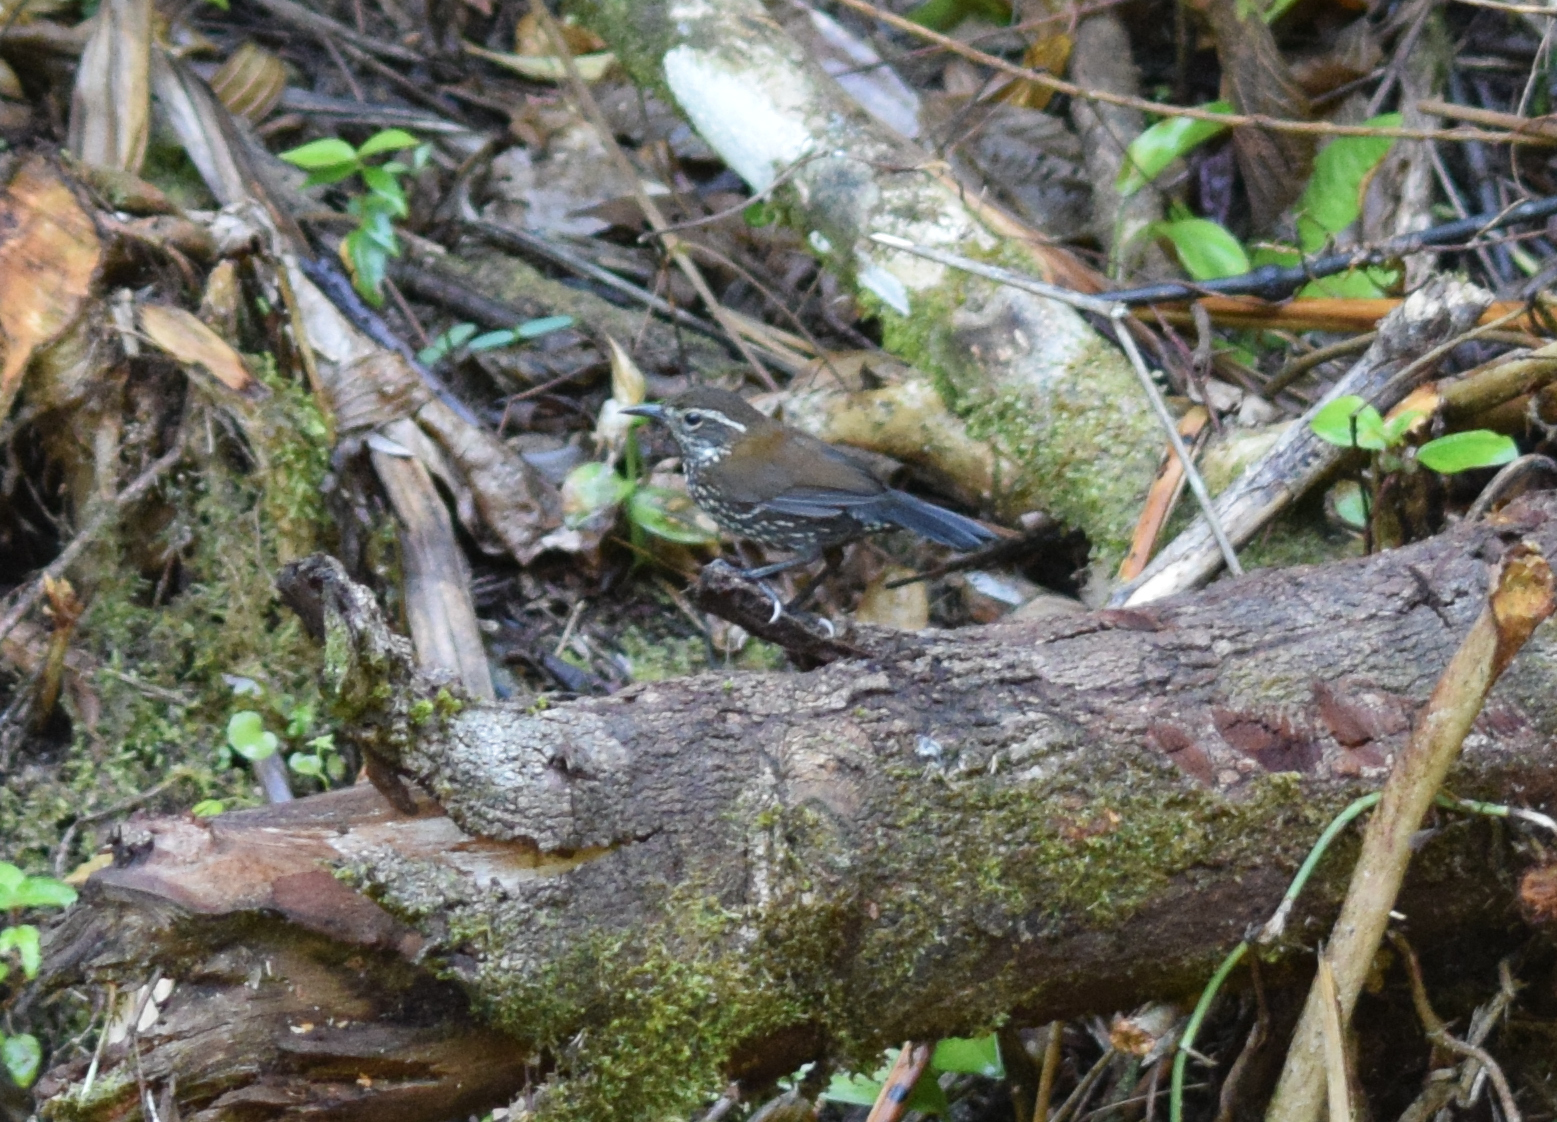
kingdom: Animalia
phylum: Chordata
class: Aves
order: Passeriformes
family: Furnariidae
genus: Lochmias
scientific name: Lochmias nematura
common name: Sharp-tailed streamcreeper
